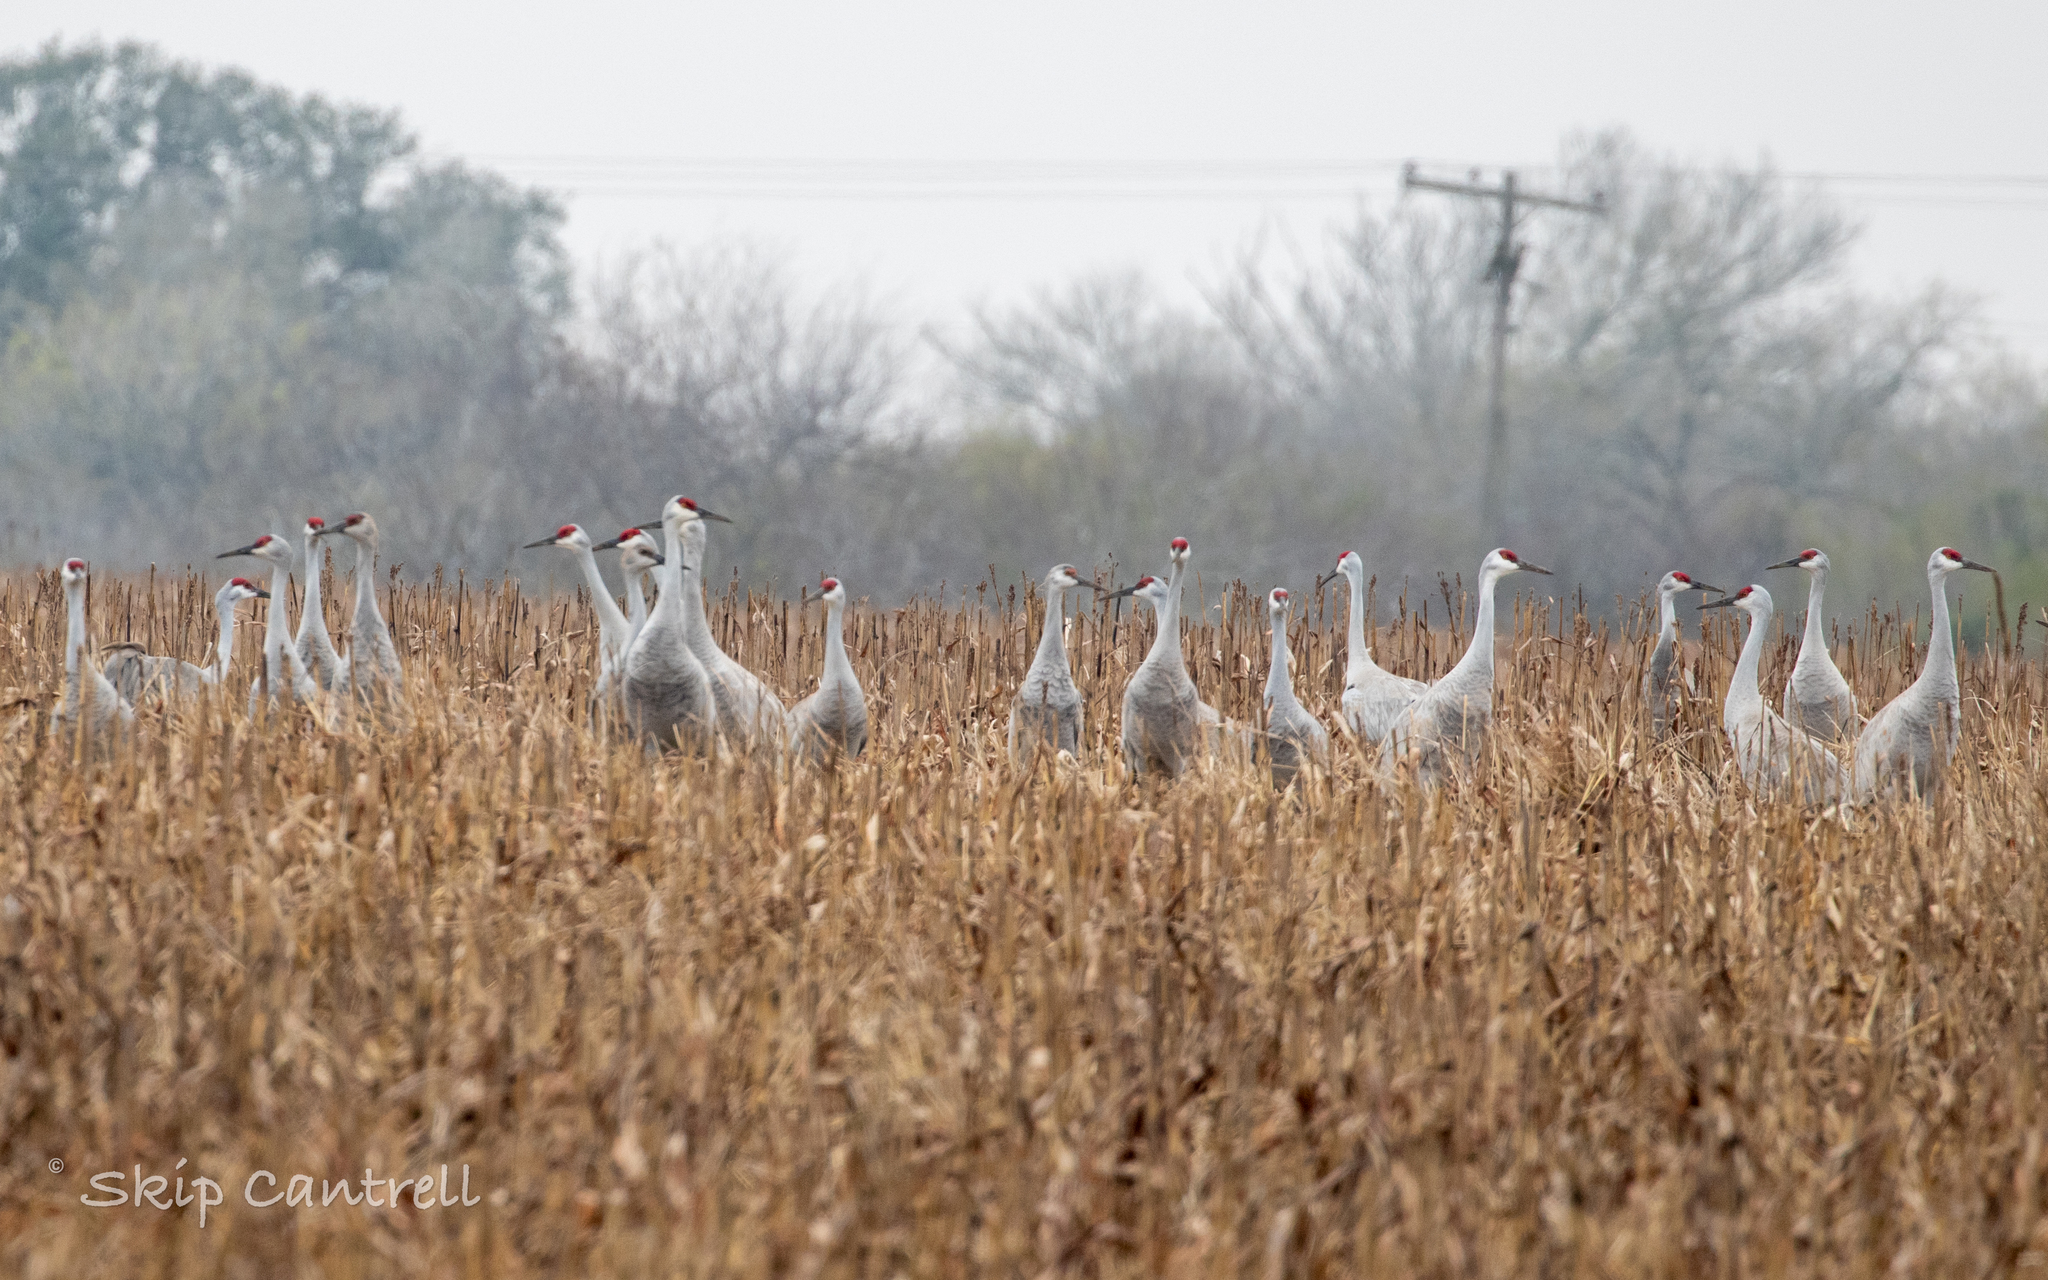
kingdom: Animalia
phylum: Chordata
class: Aves
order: Gruiformes
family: Gruidae
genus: Grus
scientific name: Grus canadensis
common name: Sandhill crane
